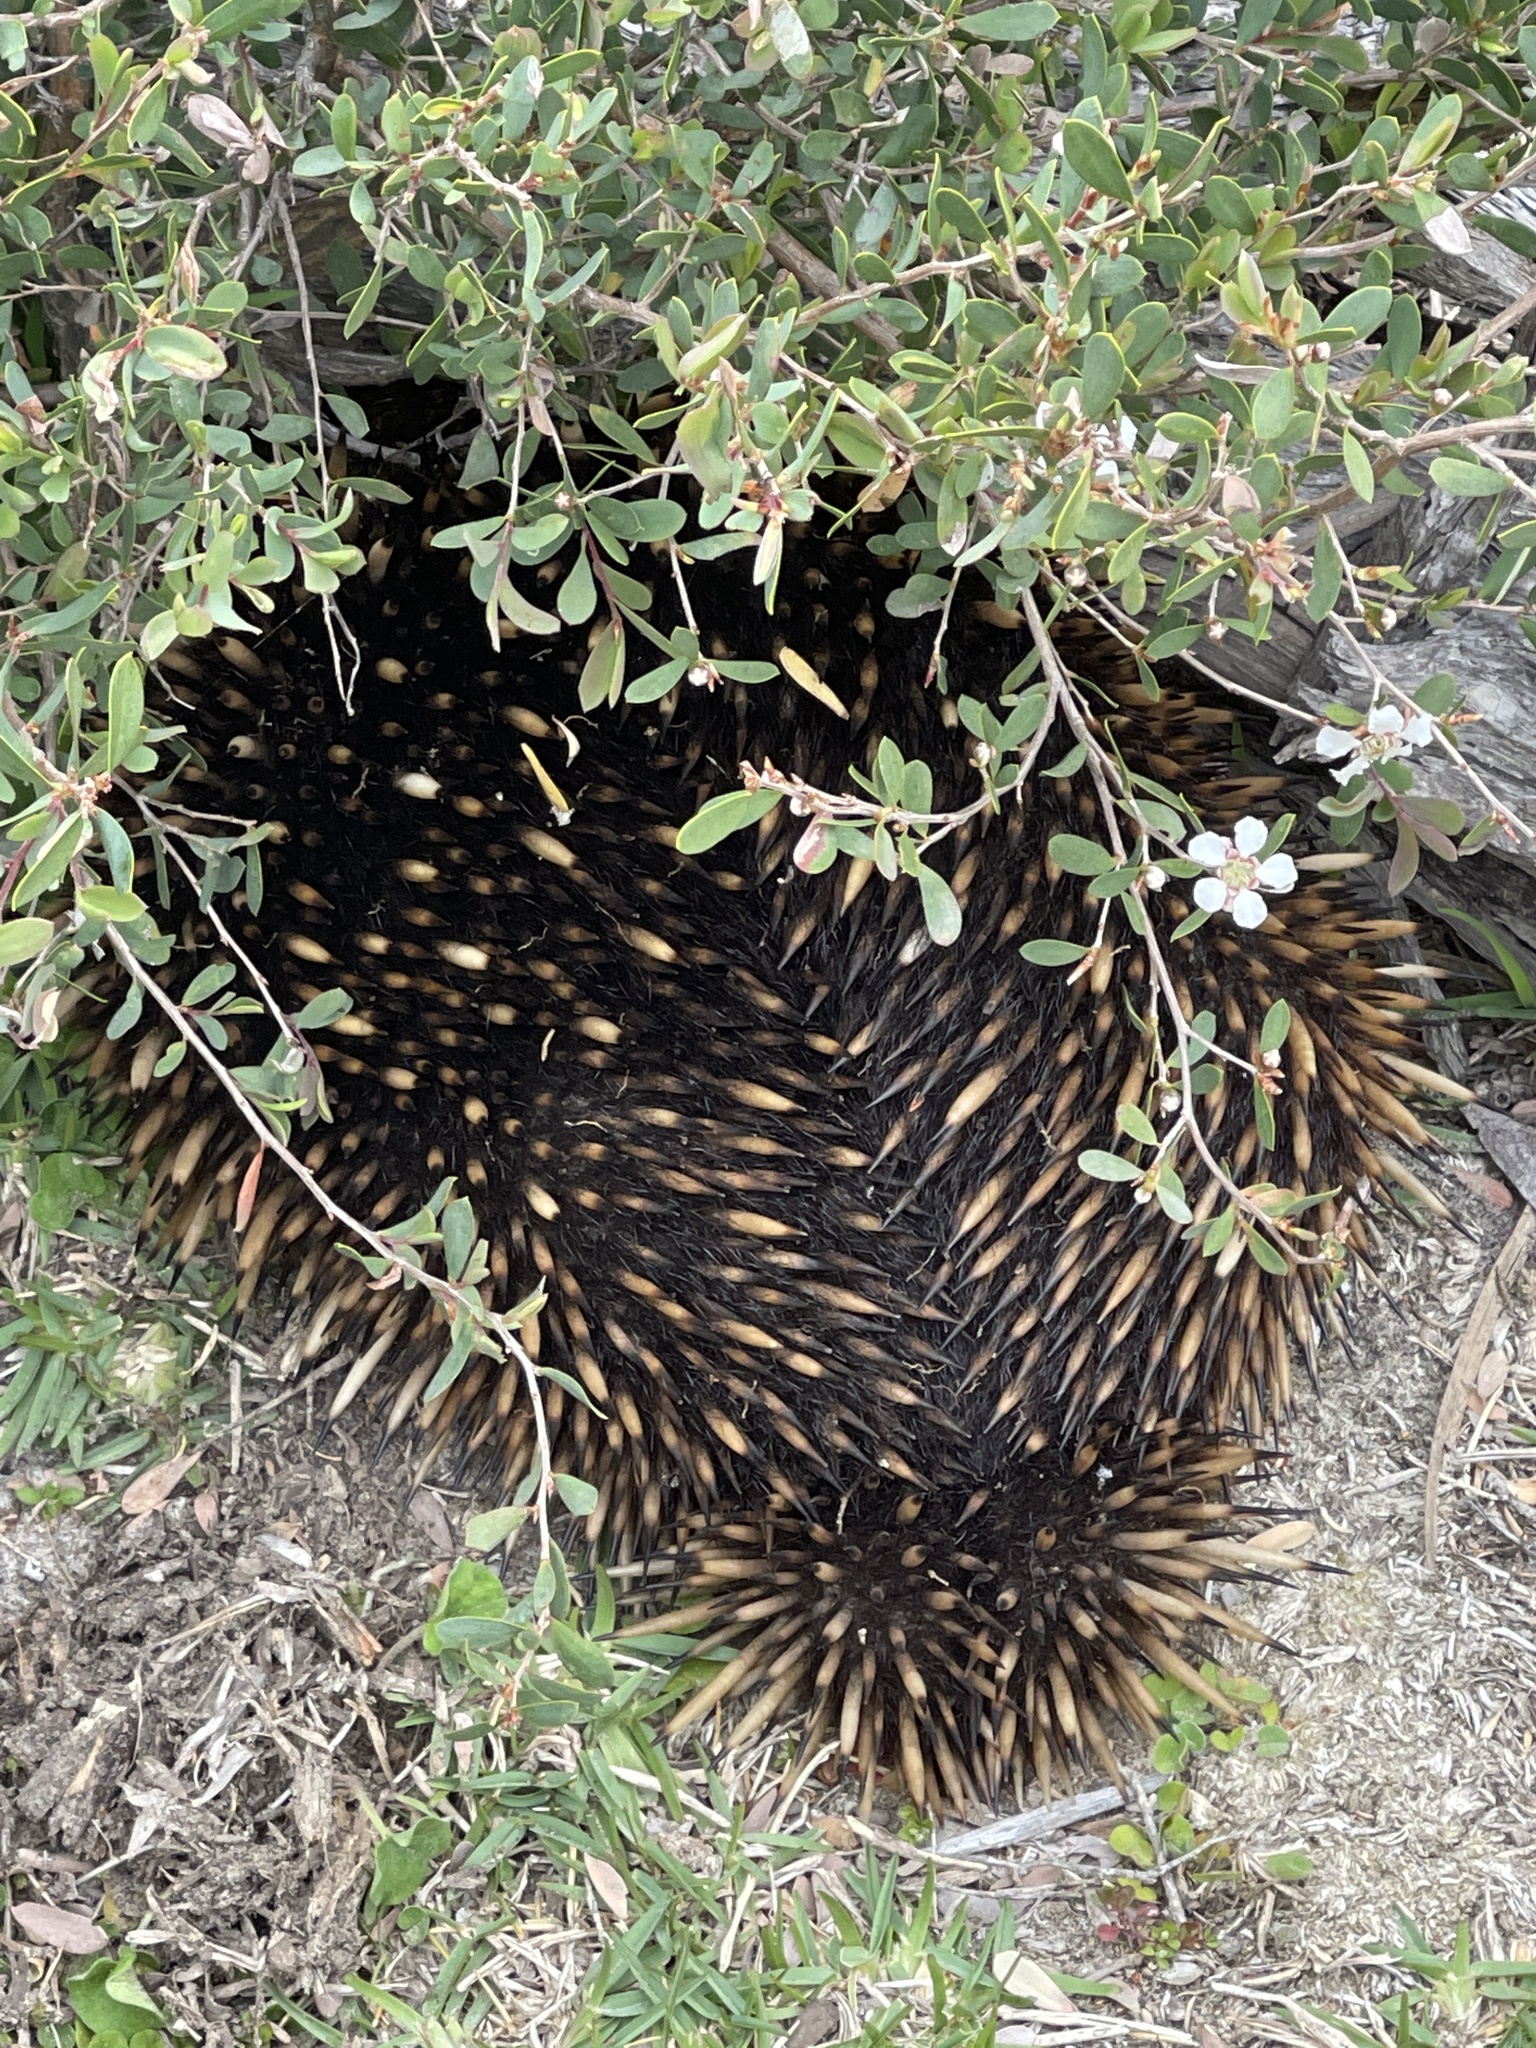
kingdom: Animalia
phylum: Chordata
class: Mammalia
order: Monotremata
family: Tachyglossidae
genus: Tachyglossus
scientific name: Tachyglossus aculeatus
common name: Short-beaked echidna
